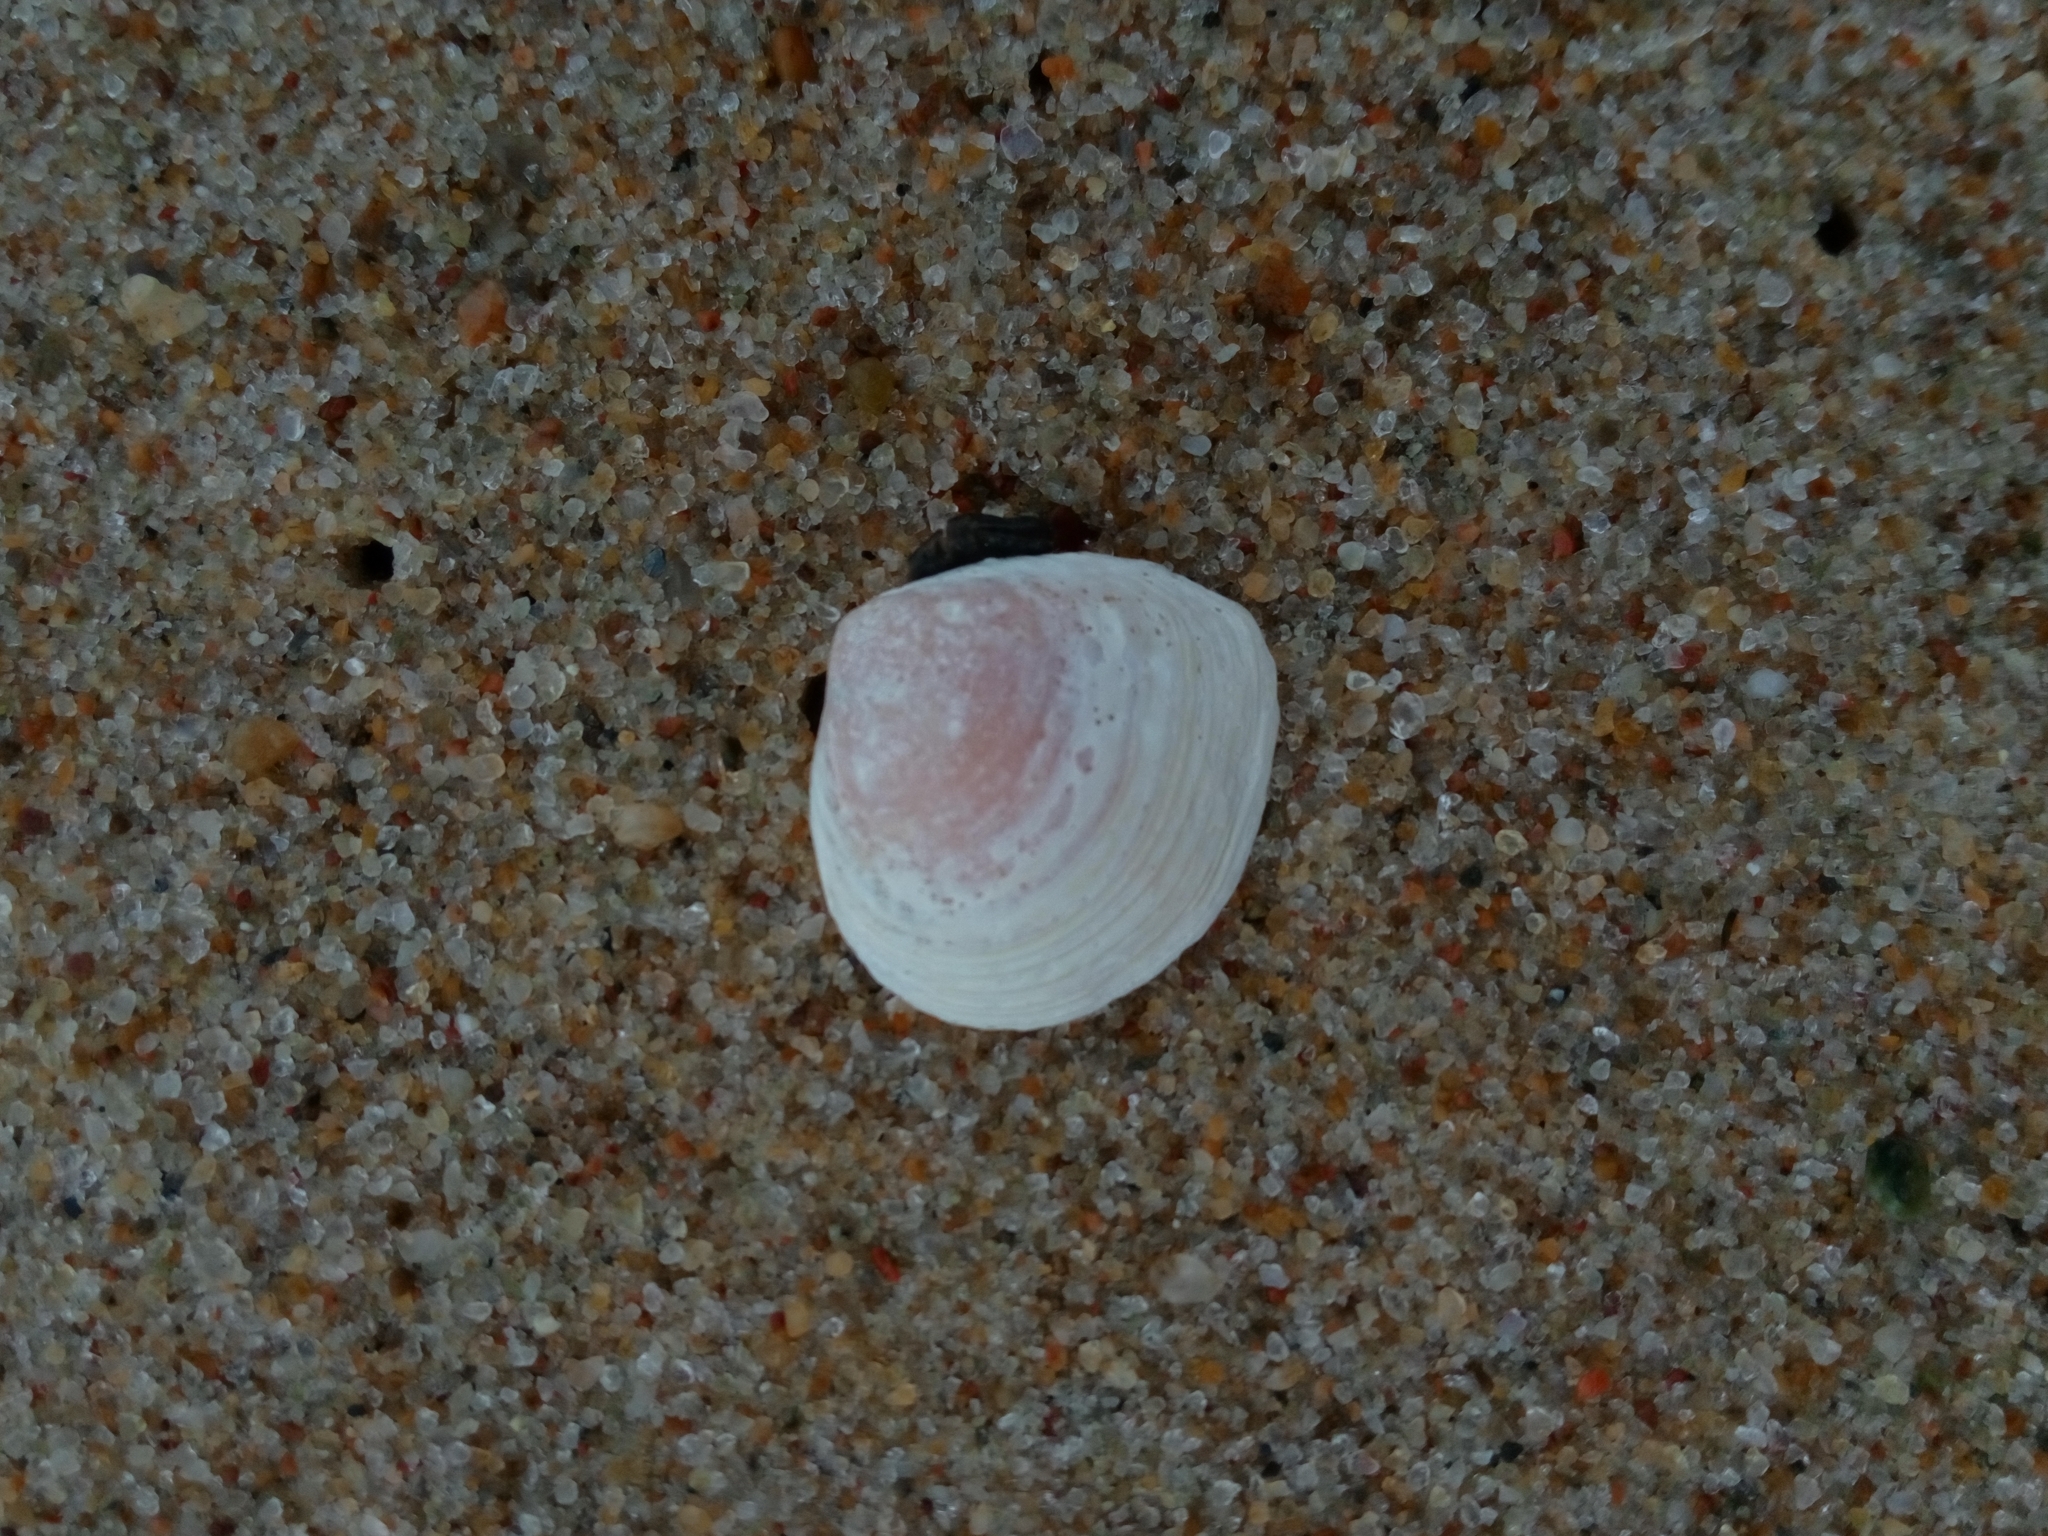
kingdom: Animalia
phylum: Mollusca
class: Bivalvia
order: Cardiida
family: Tellinidae
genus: Macoma
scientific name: Macoma balthica
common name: Baltic tellin
